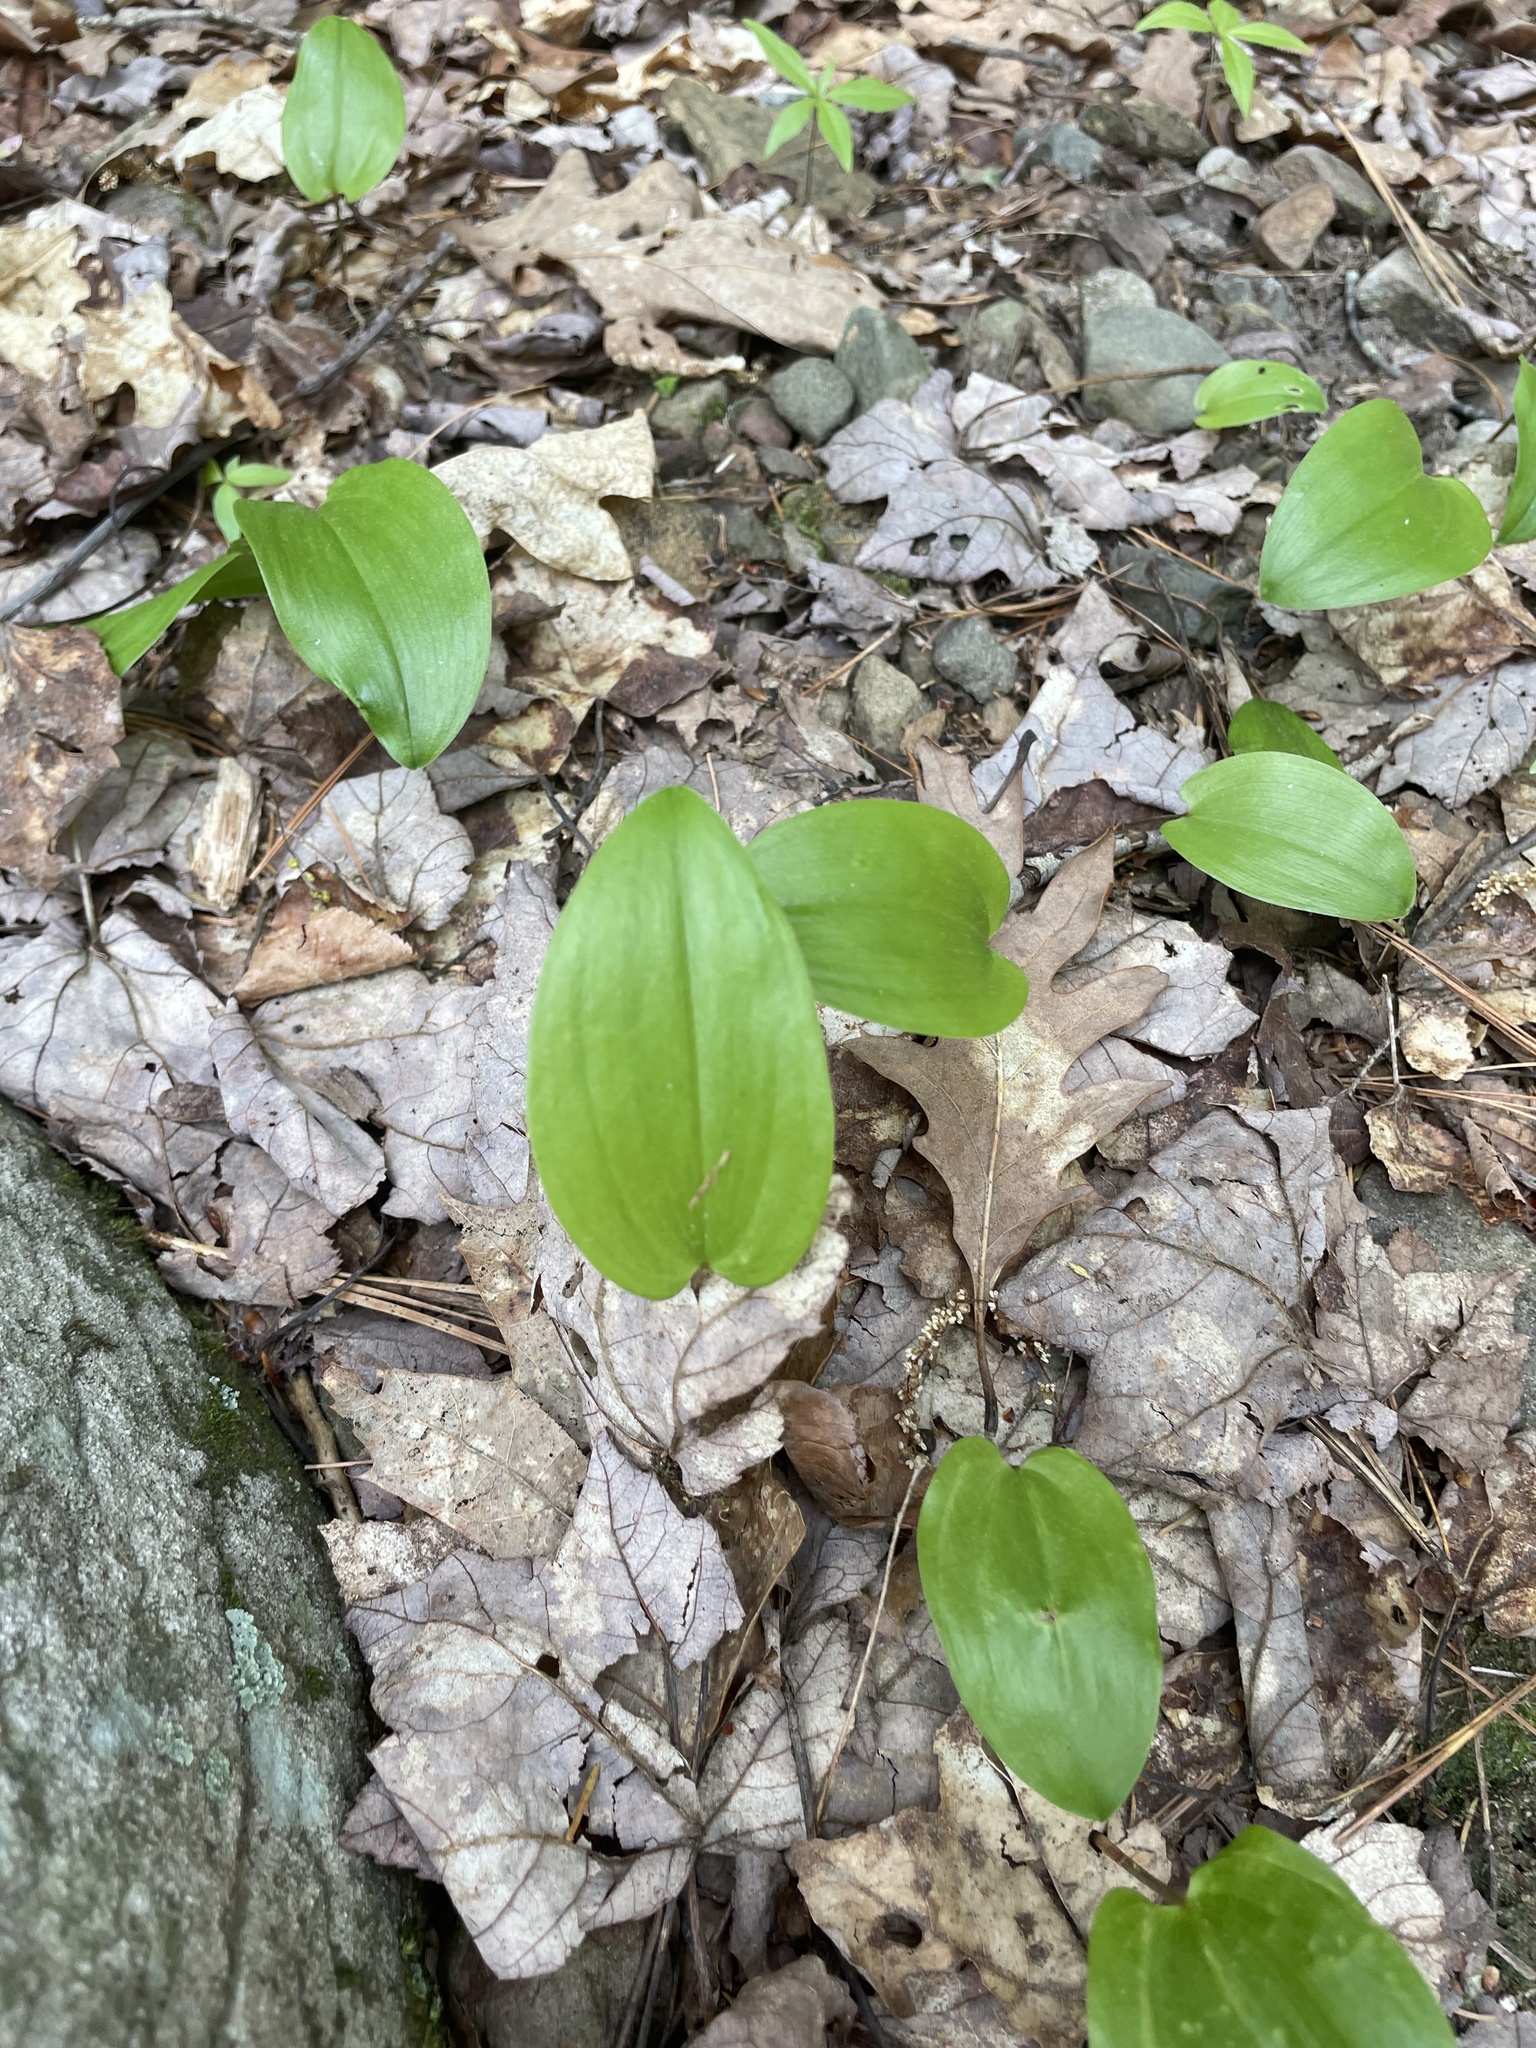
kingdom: Plantae
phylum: Tracheophyta
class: Liliopsida
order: Asparagales
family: Asparagaceae
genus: Maianthemum
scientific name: Maianthemum canadense
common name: False lily-of-the-valley
